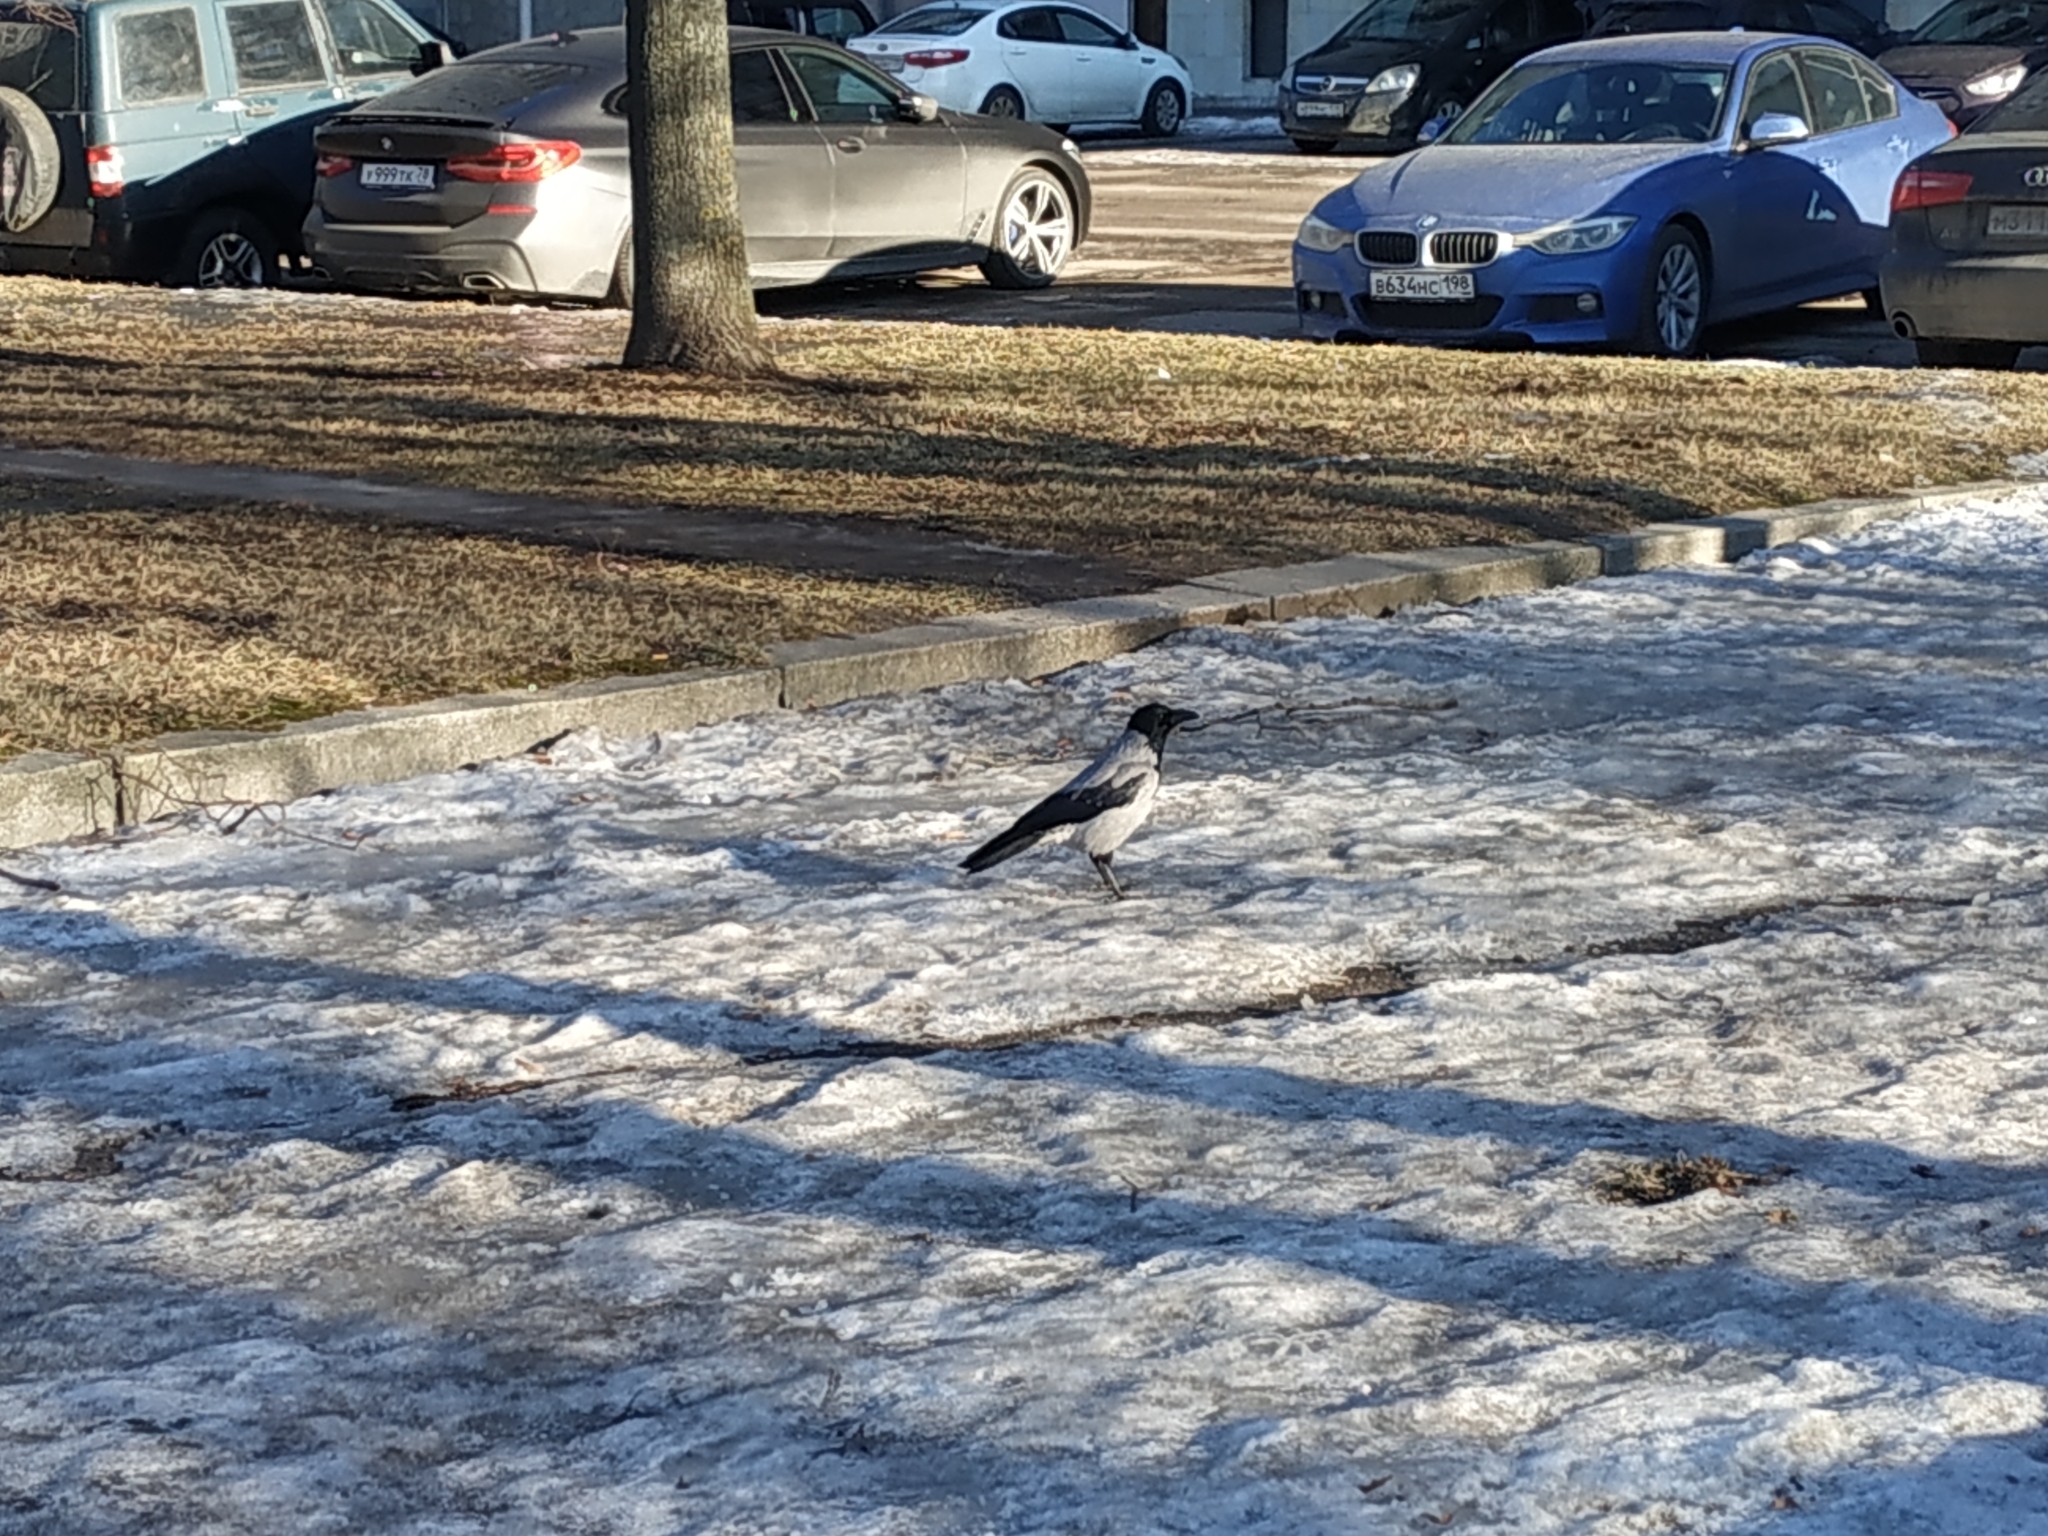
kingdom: Animalia
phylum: Chordata
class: Aves
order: Passeriformes
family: Corvidae
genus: Corvus
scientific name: Corvus cornix
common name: Hooded crow
